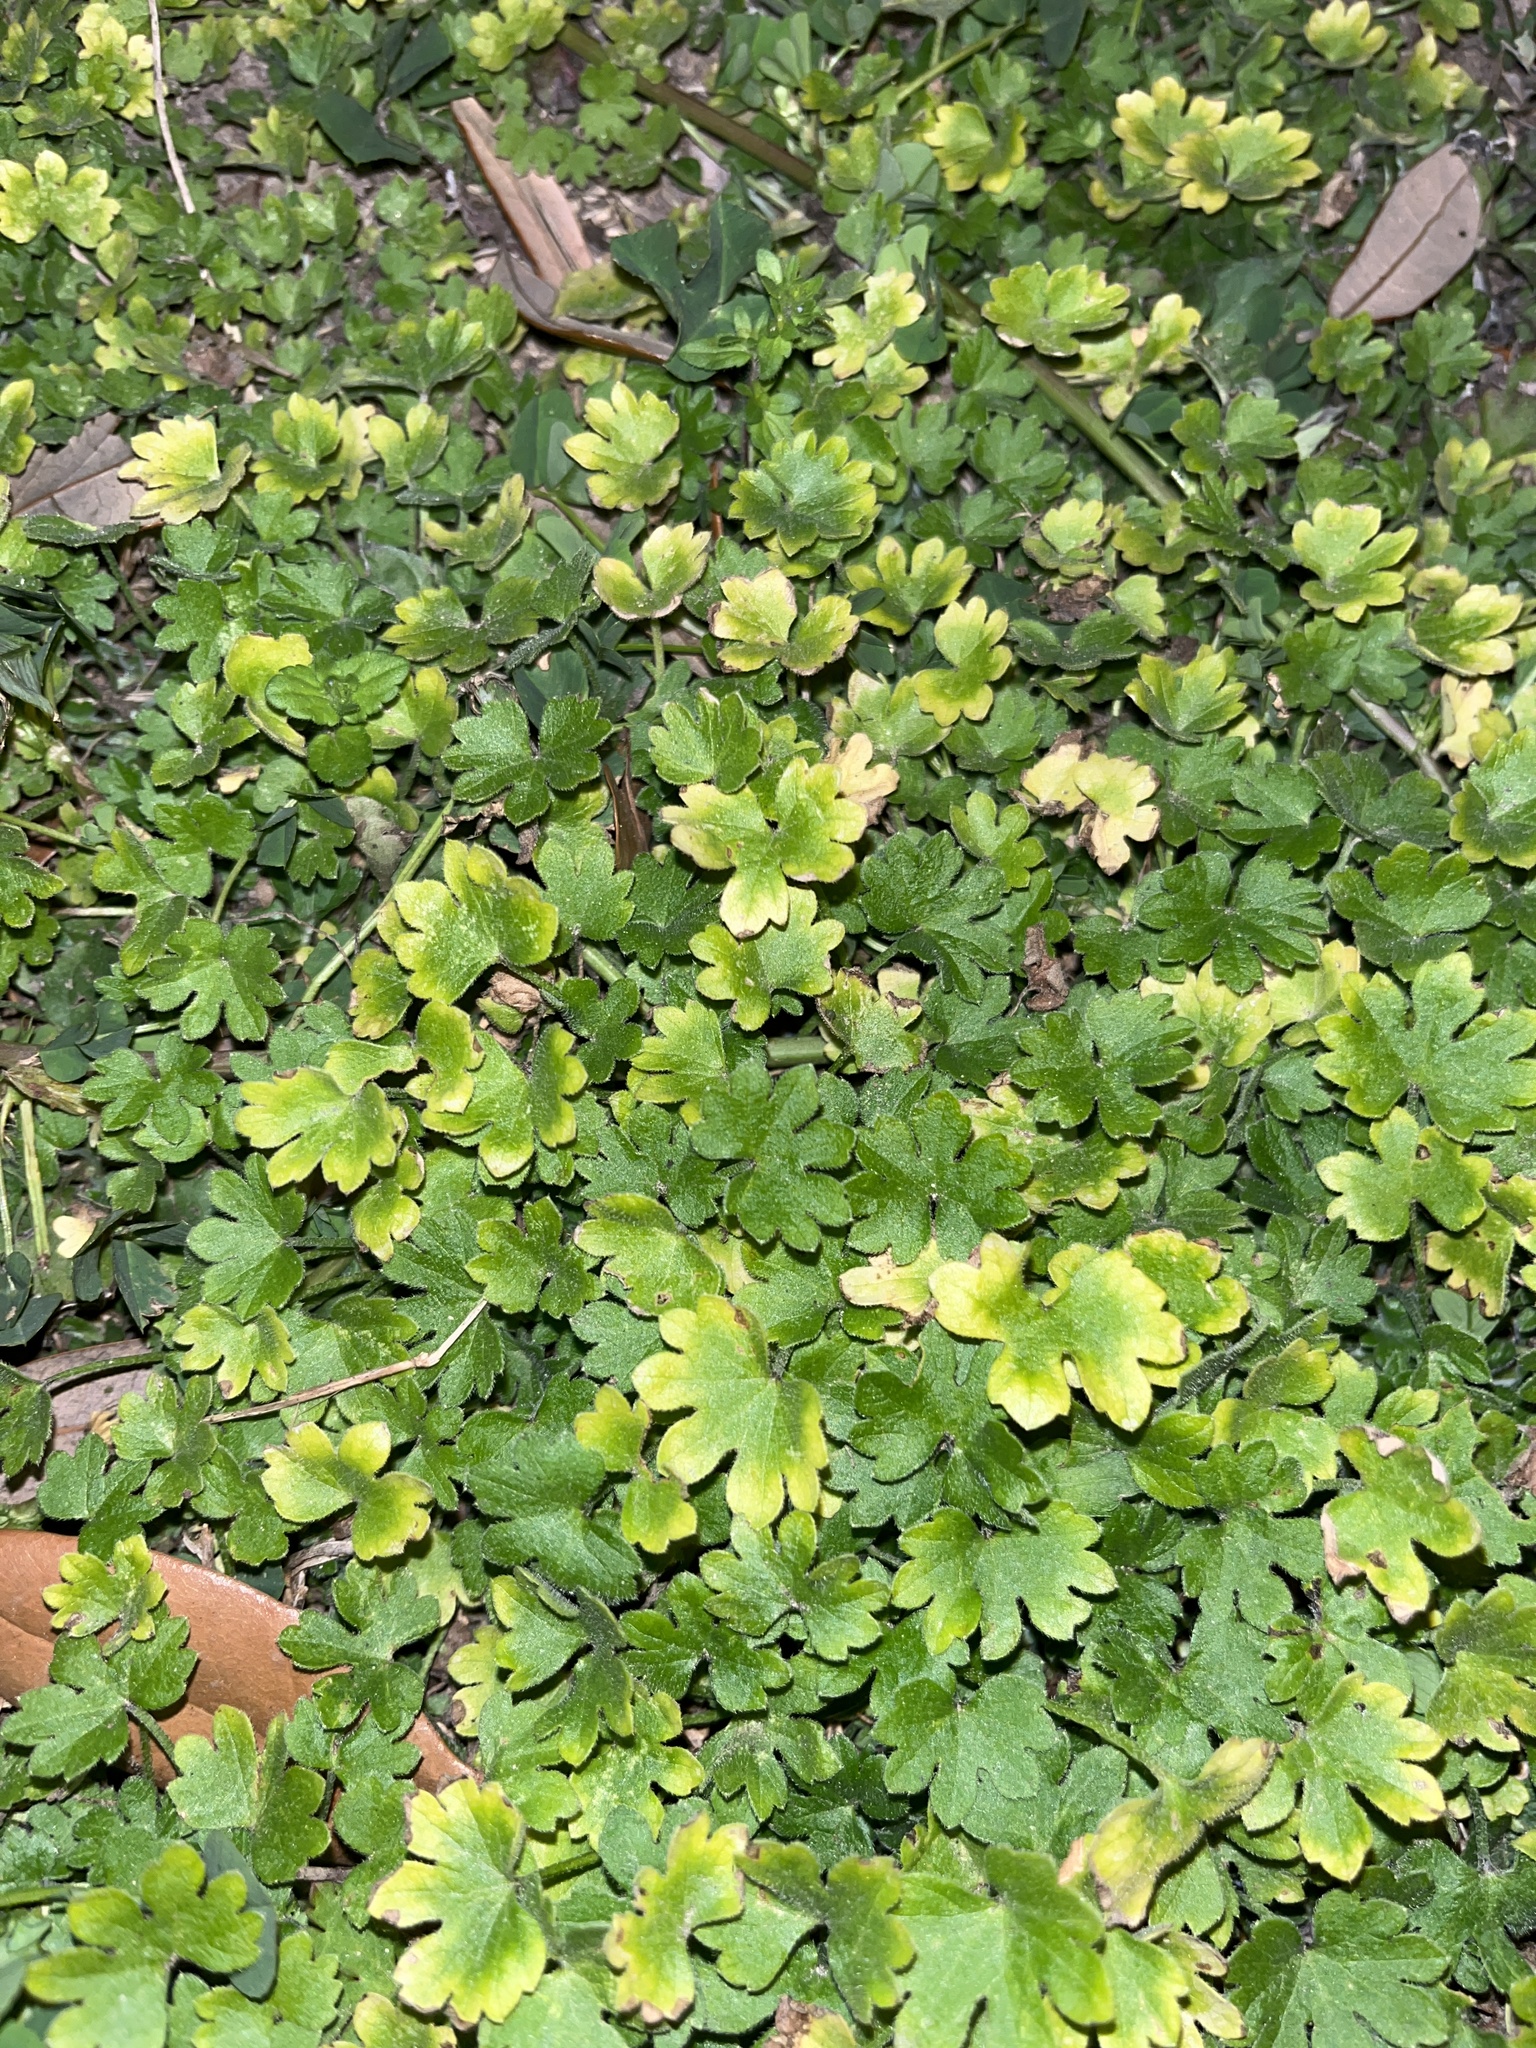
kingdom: Plantae
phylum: Tracheophyta
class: Magnoliopsida
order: Apiales
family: Apiaceae
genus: Bowlesia
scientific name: Bowlesia incana
